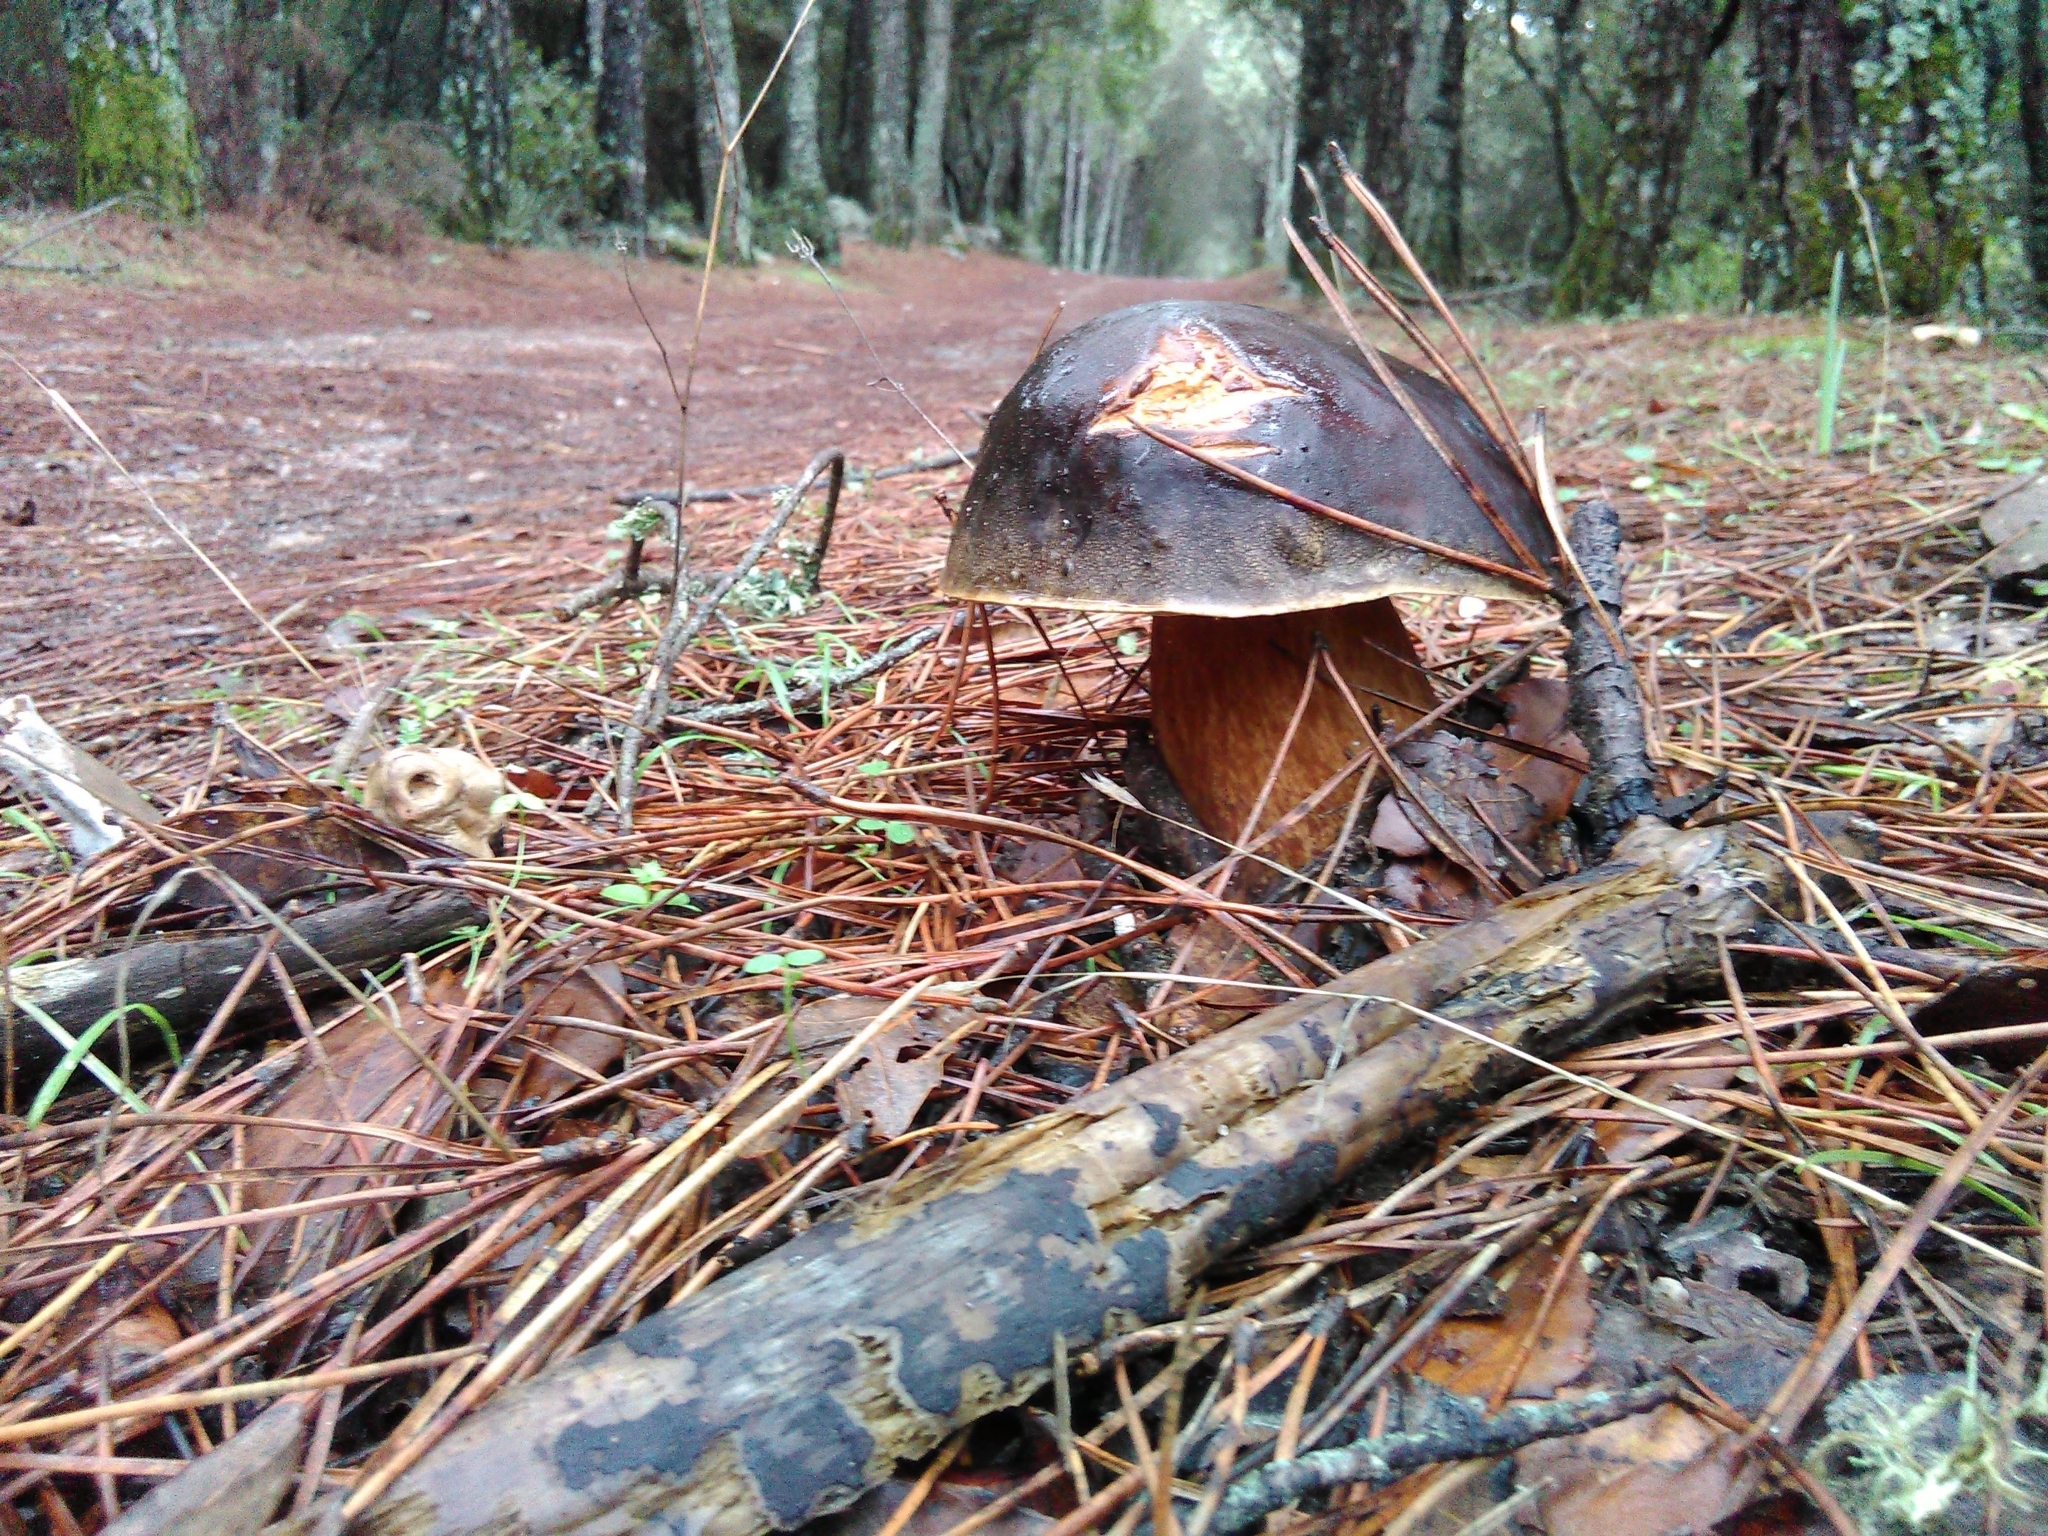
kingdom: Fungi
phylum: Basidiomycota
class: Agaricomycetes
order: Boletales
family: Boletaceae
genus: Boletus
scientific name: Boletus aereus
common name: Bronze bolete
